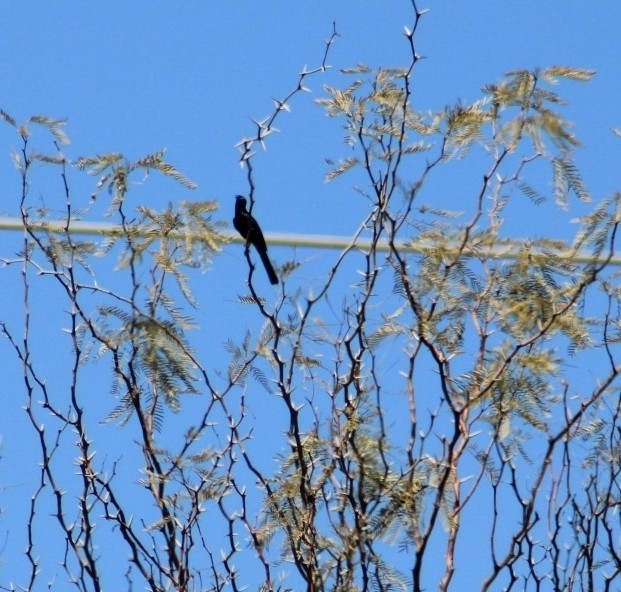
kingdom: Animalia
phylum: Chordata
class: Aves
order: Passeriformes
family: Ptilogonatidae
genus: Phainopepla
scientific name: Phainopepla nitens
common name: Phainopepla
